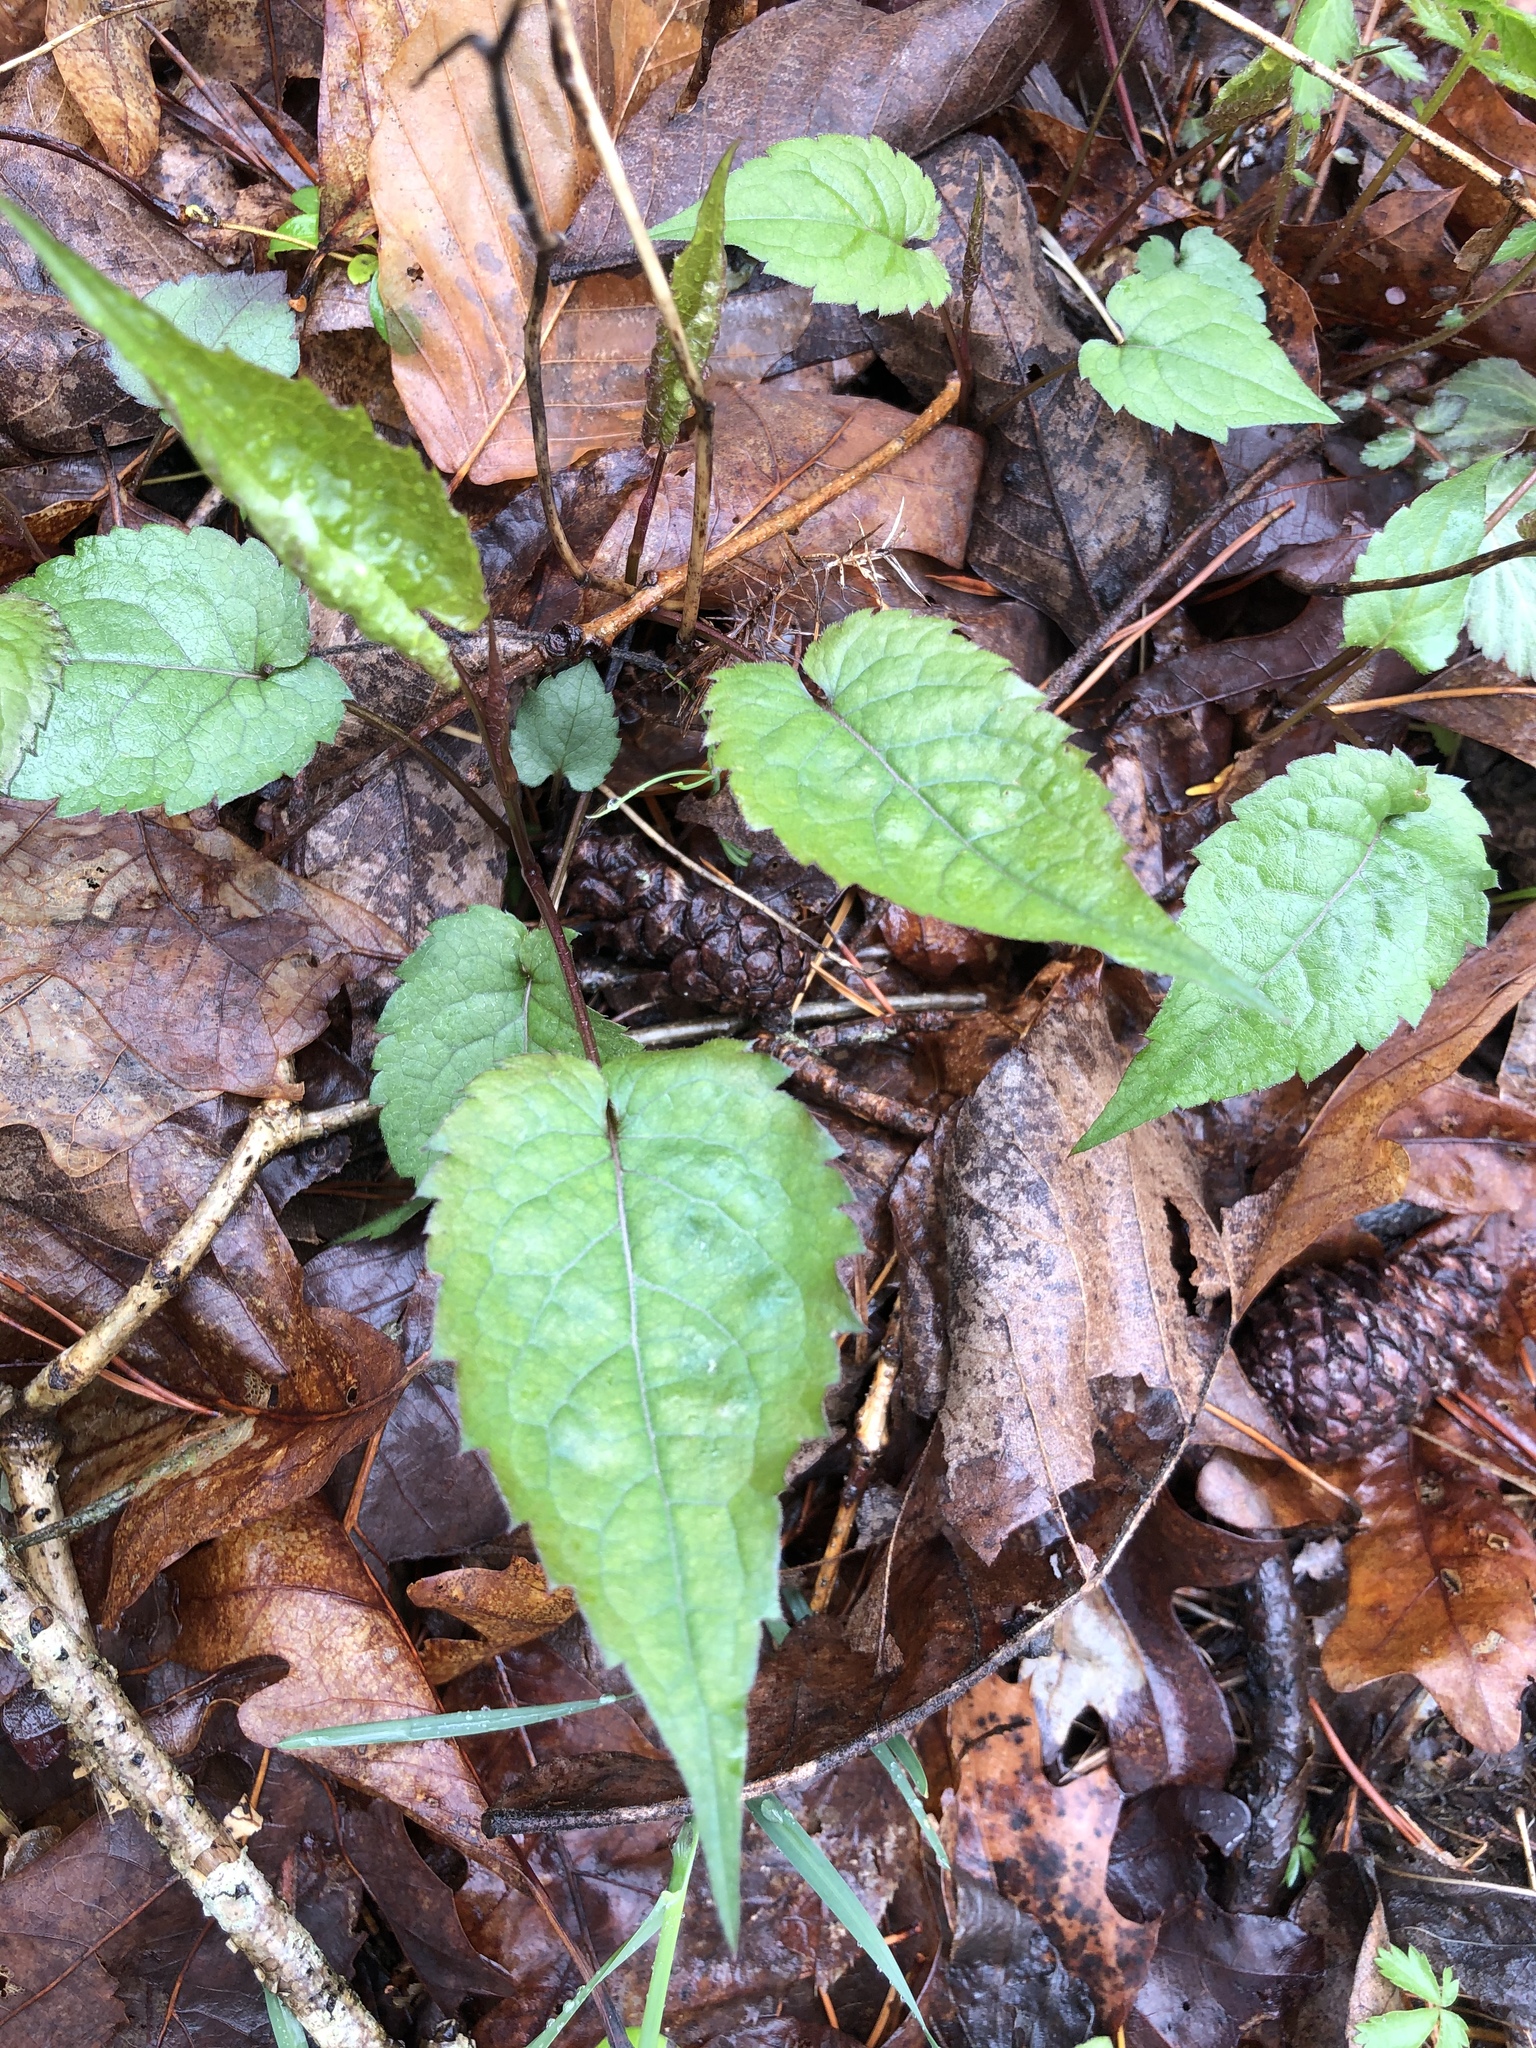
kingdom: Plantae
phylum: Tracheophyta
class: Magnoliopsida
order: Asterales
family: Asteraceae
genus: Eurybia
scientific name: Eurybia divaricata
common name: White wood aster
